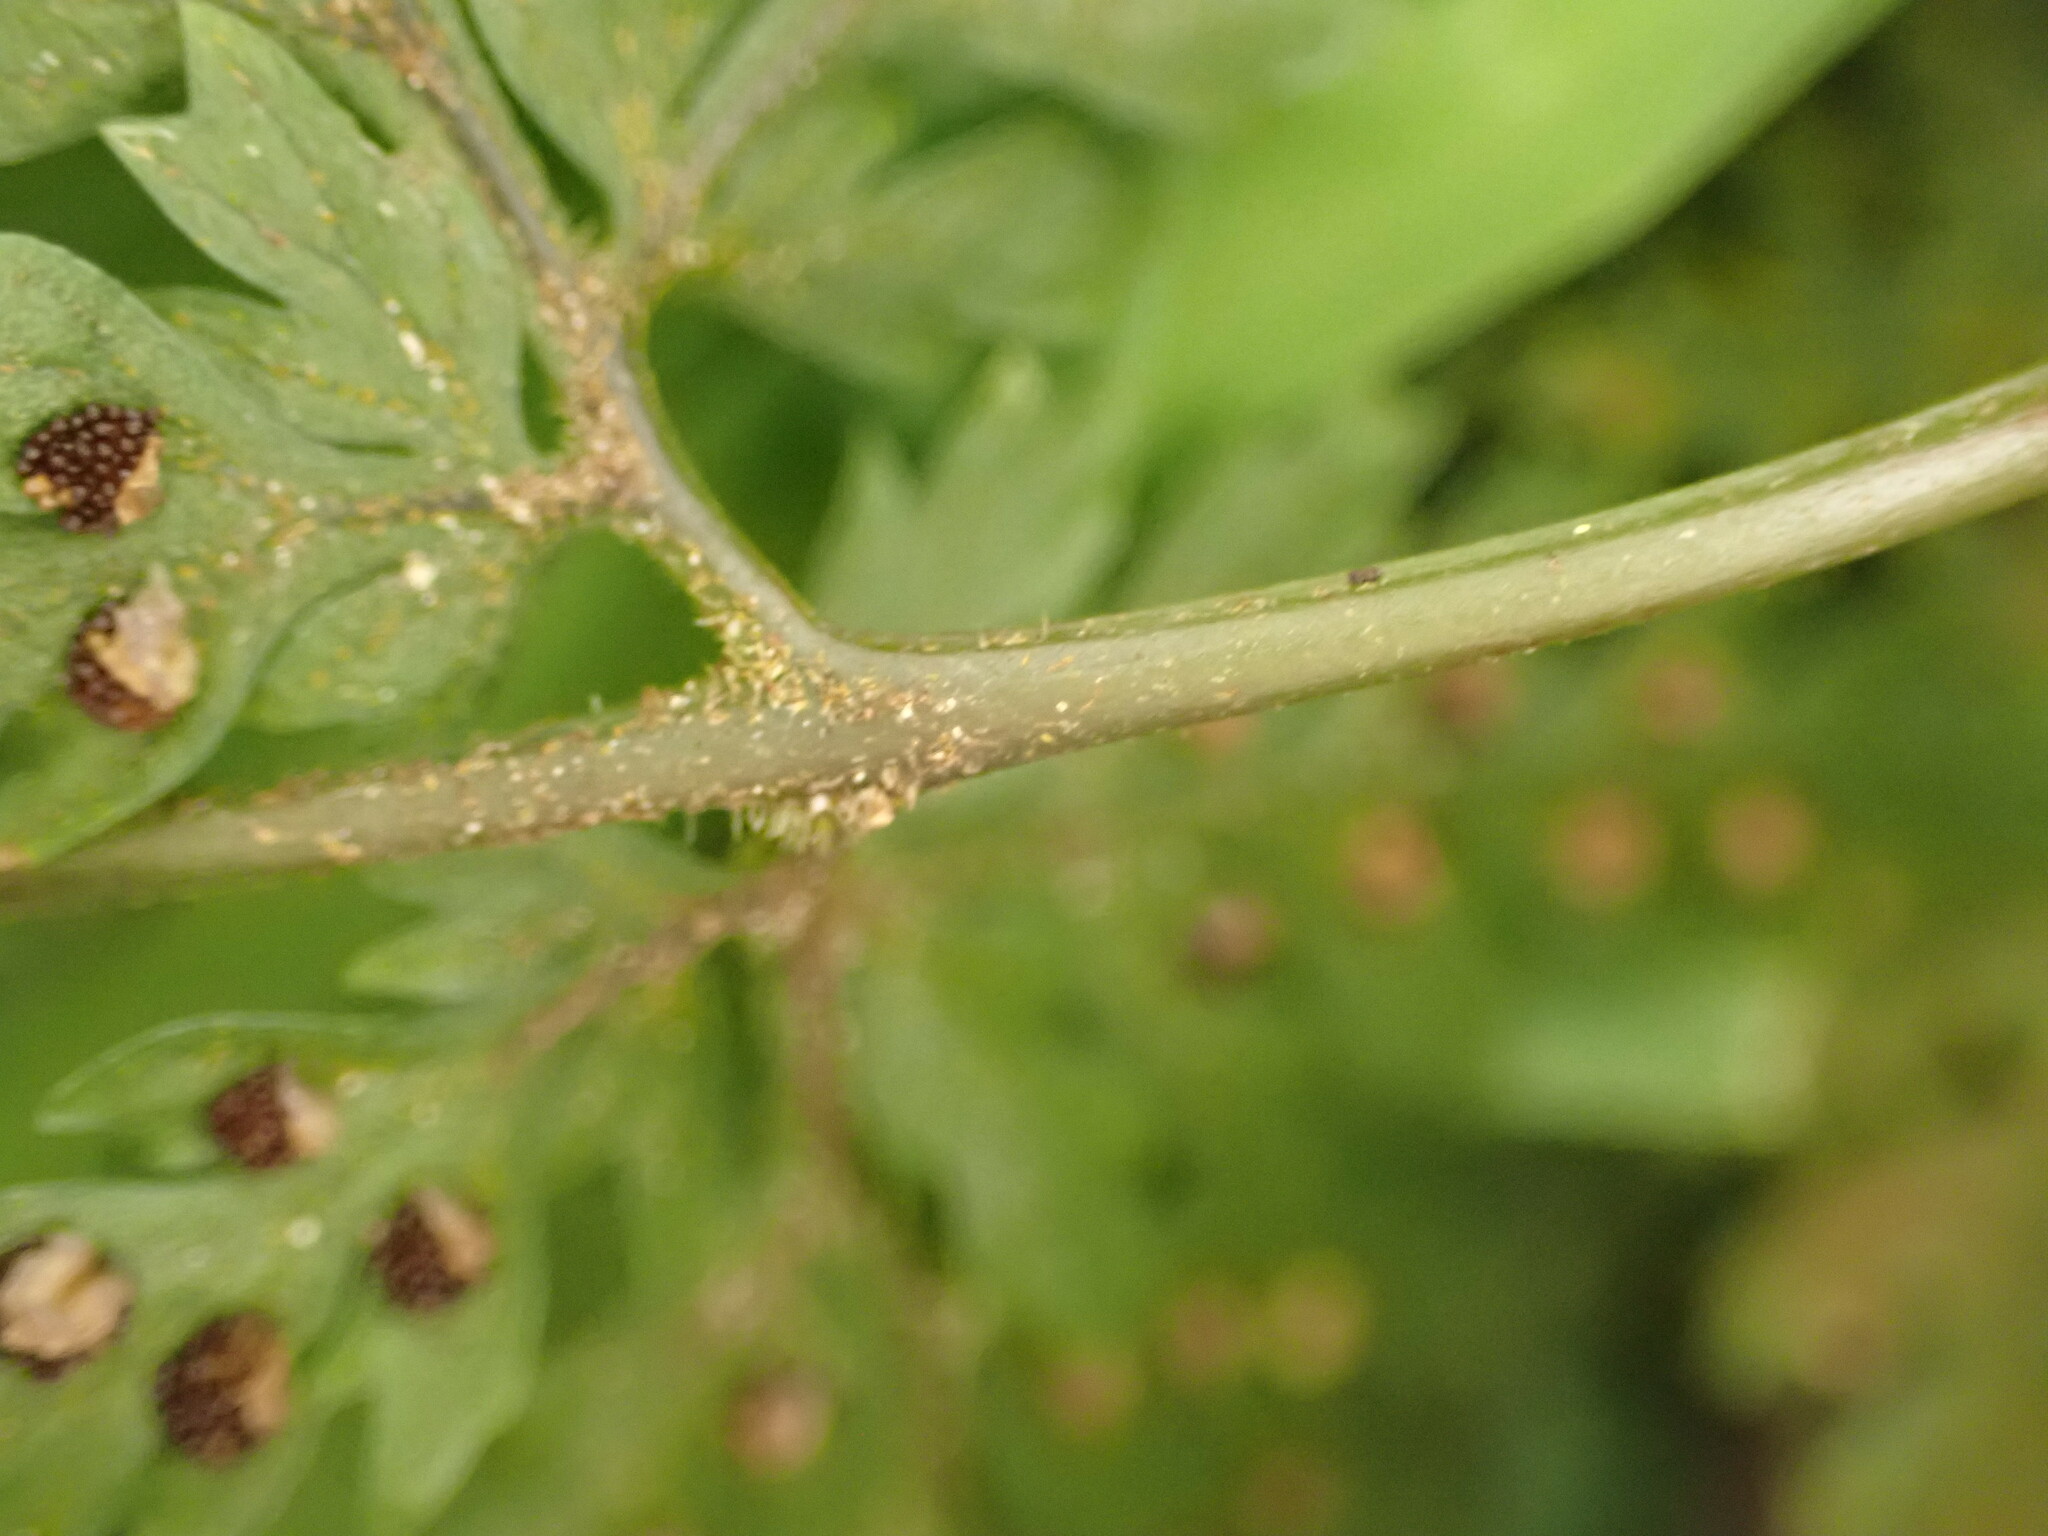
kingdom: Plantae
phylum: Tracheophyta
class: Polypodiopsida
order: Polypodiales
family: Dryopteridaceae
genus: Parapolystichum
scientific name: Parapolystichum glabellum
